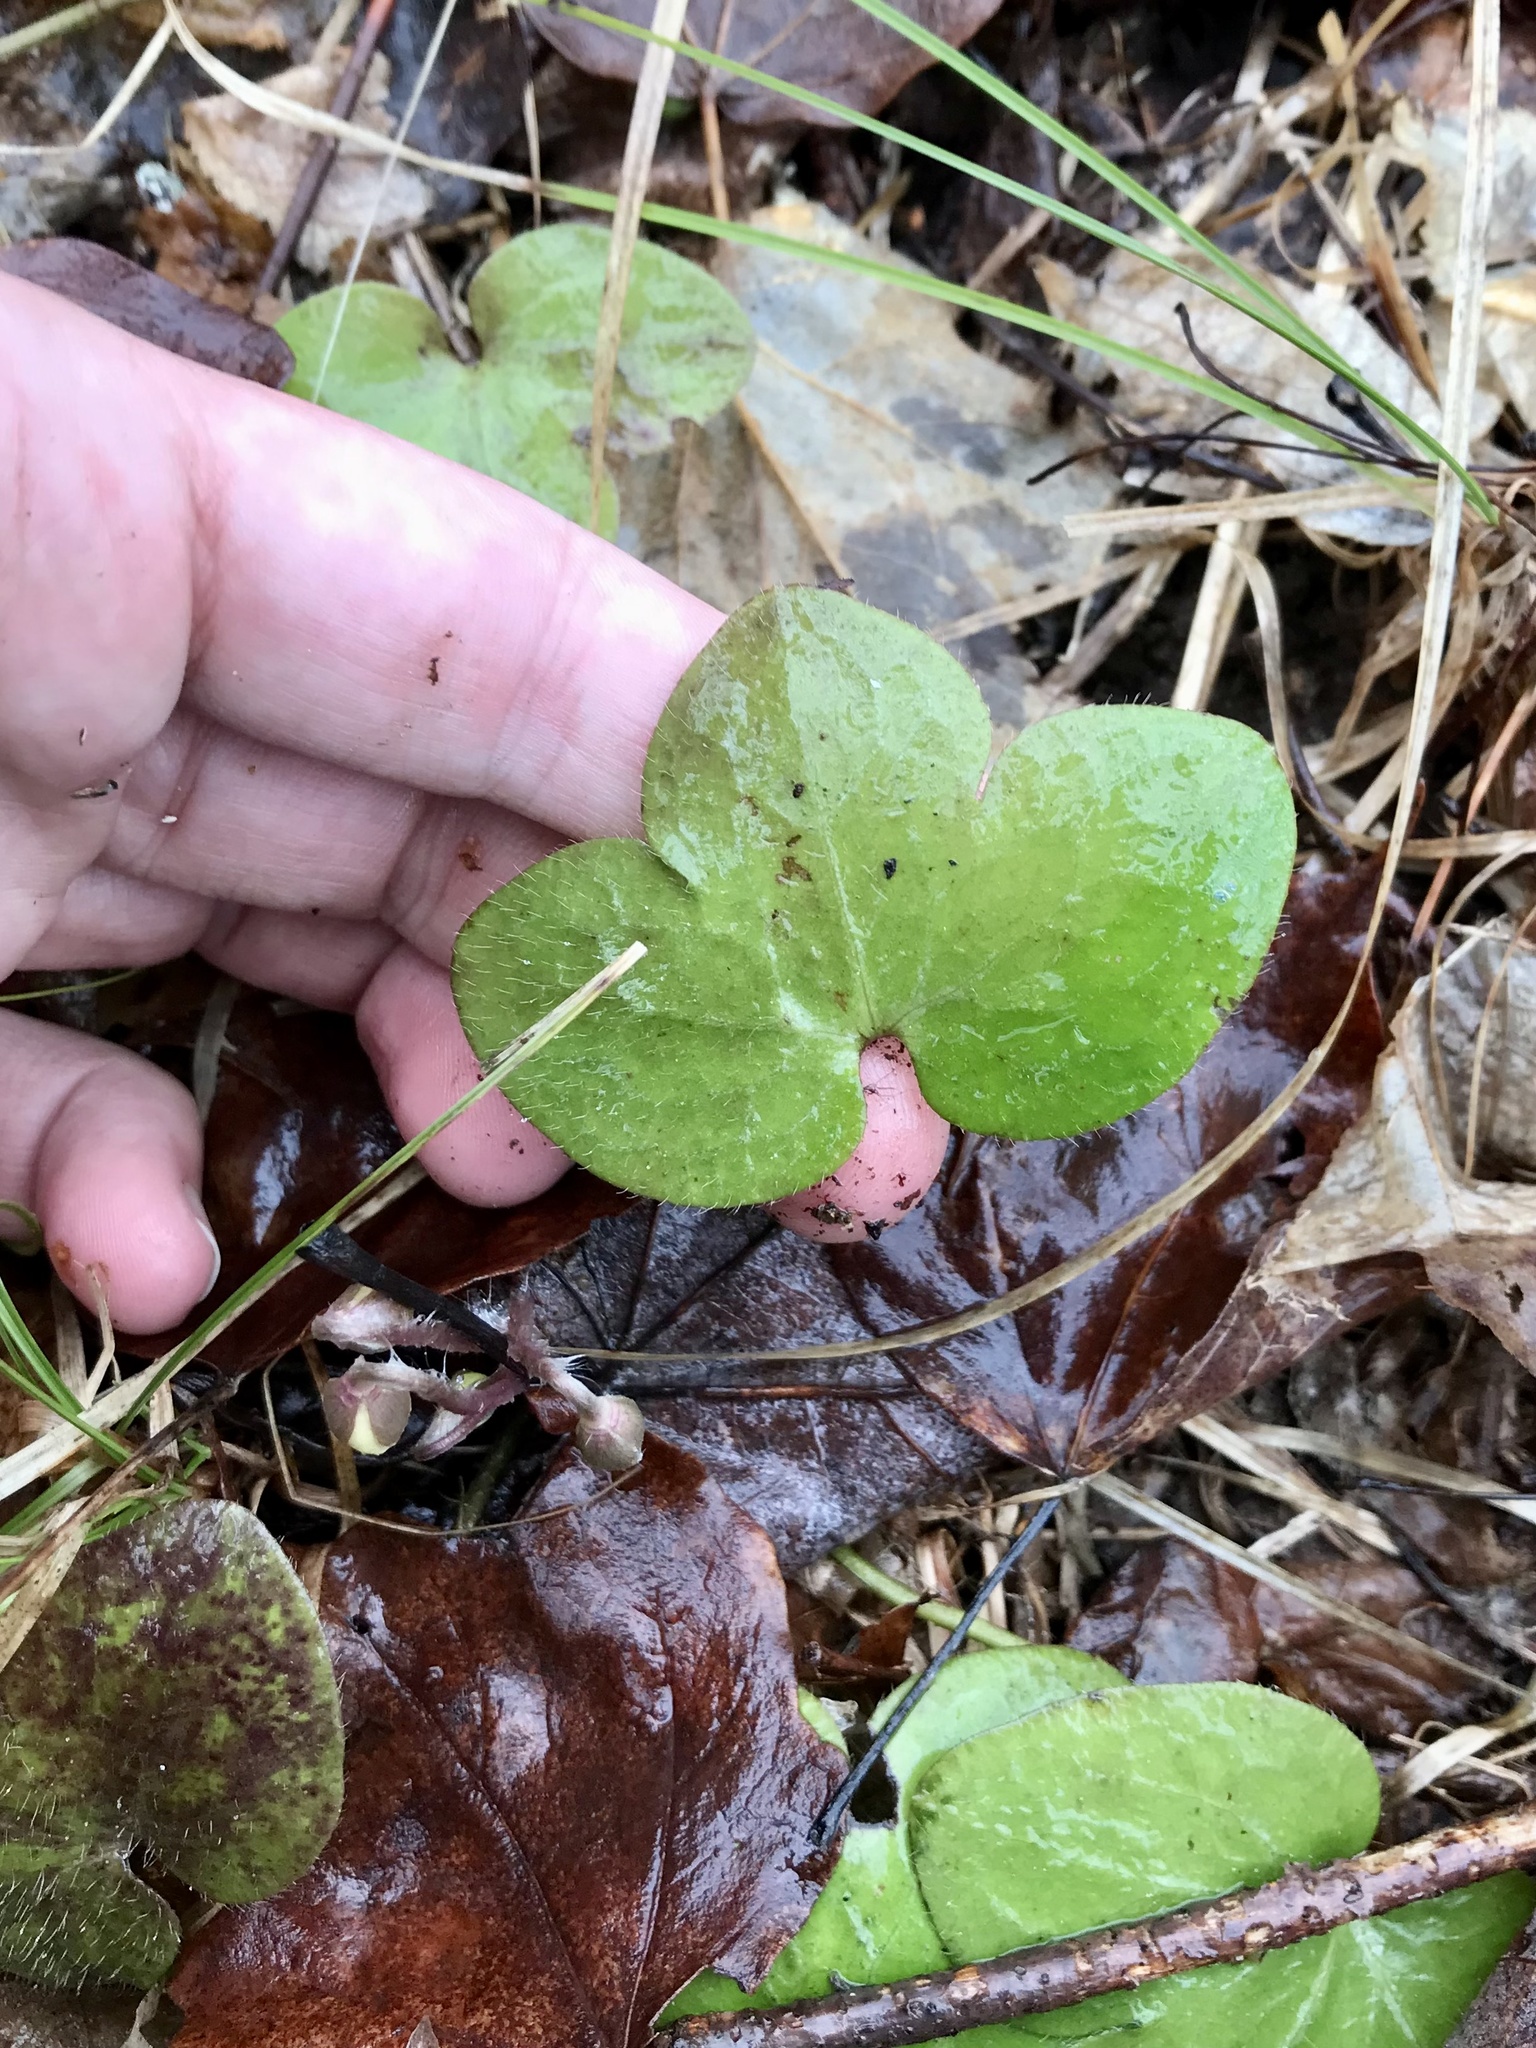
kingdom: Plantae
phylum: Tracheophyta
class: Magnoliopsida
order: Ranunculales
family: Ranunculaceae
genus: Hepatica
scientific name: Hepatica americana
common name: American hepatica
